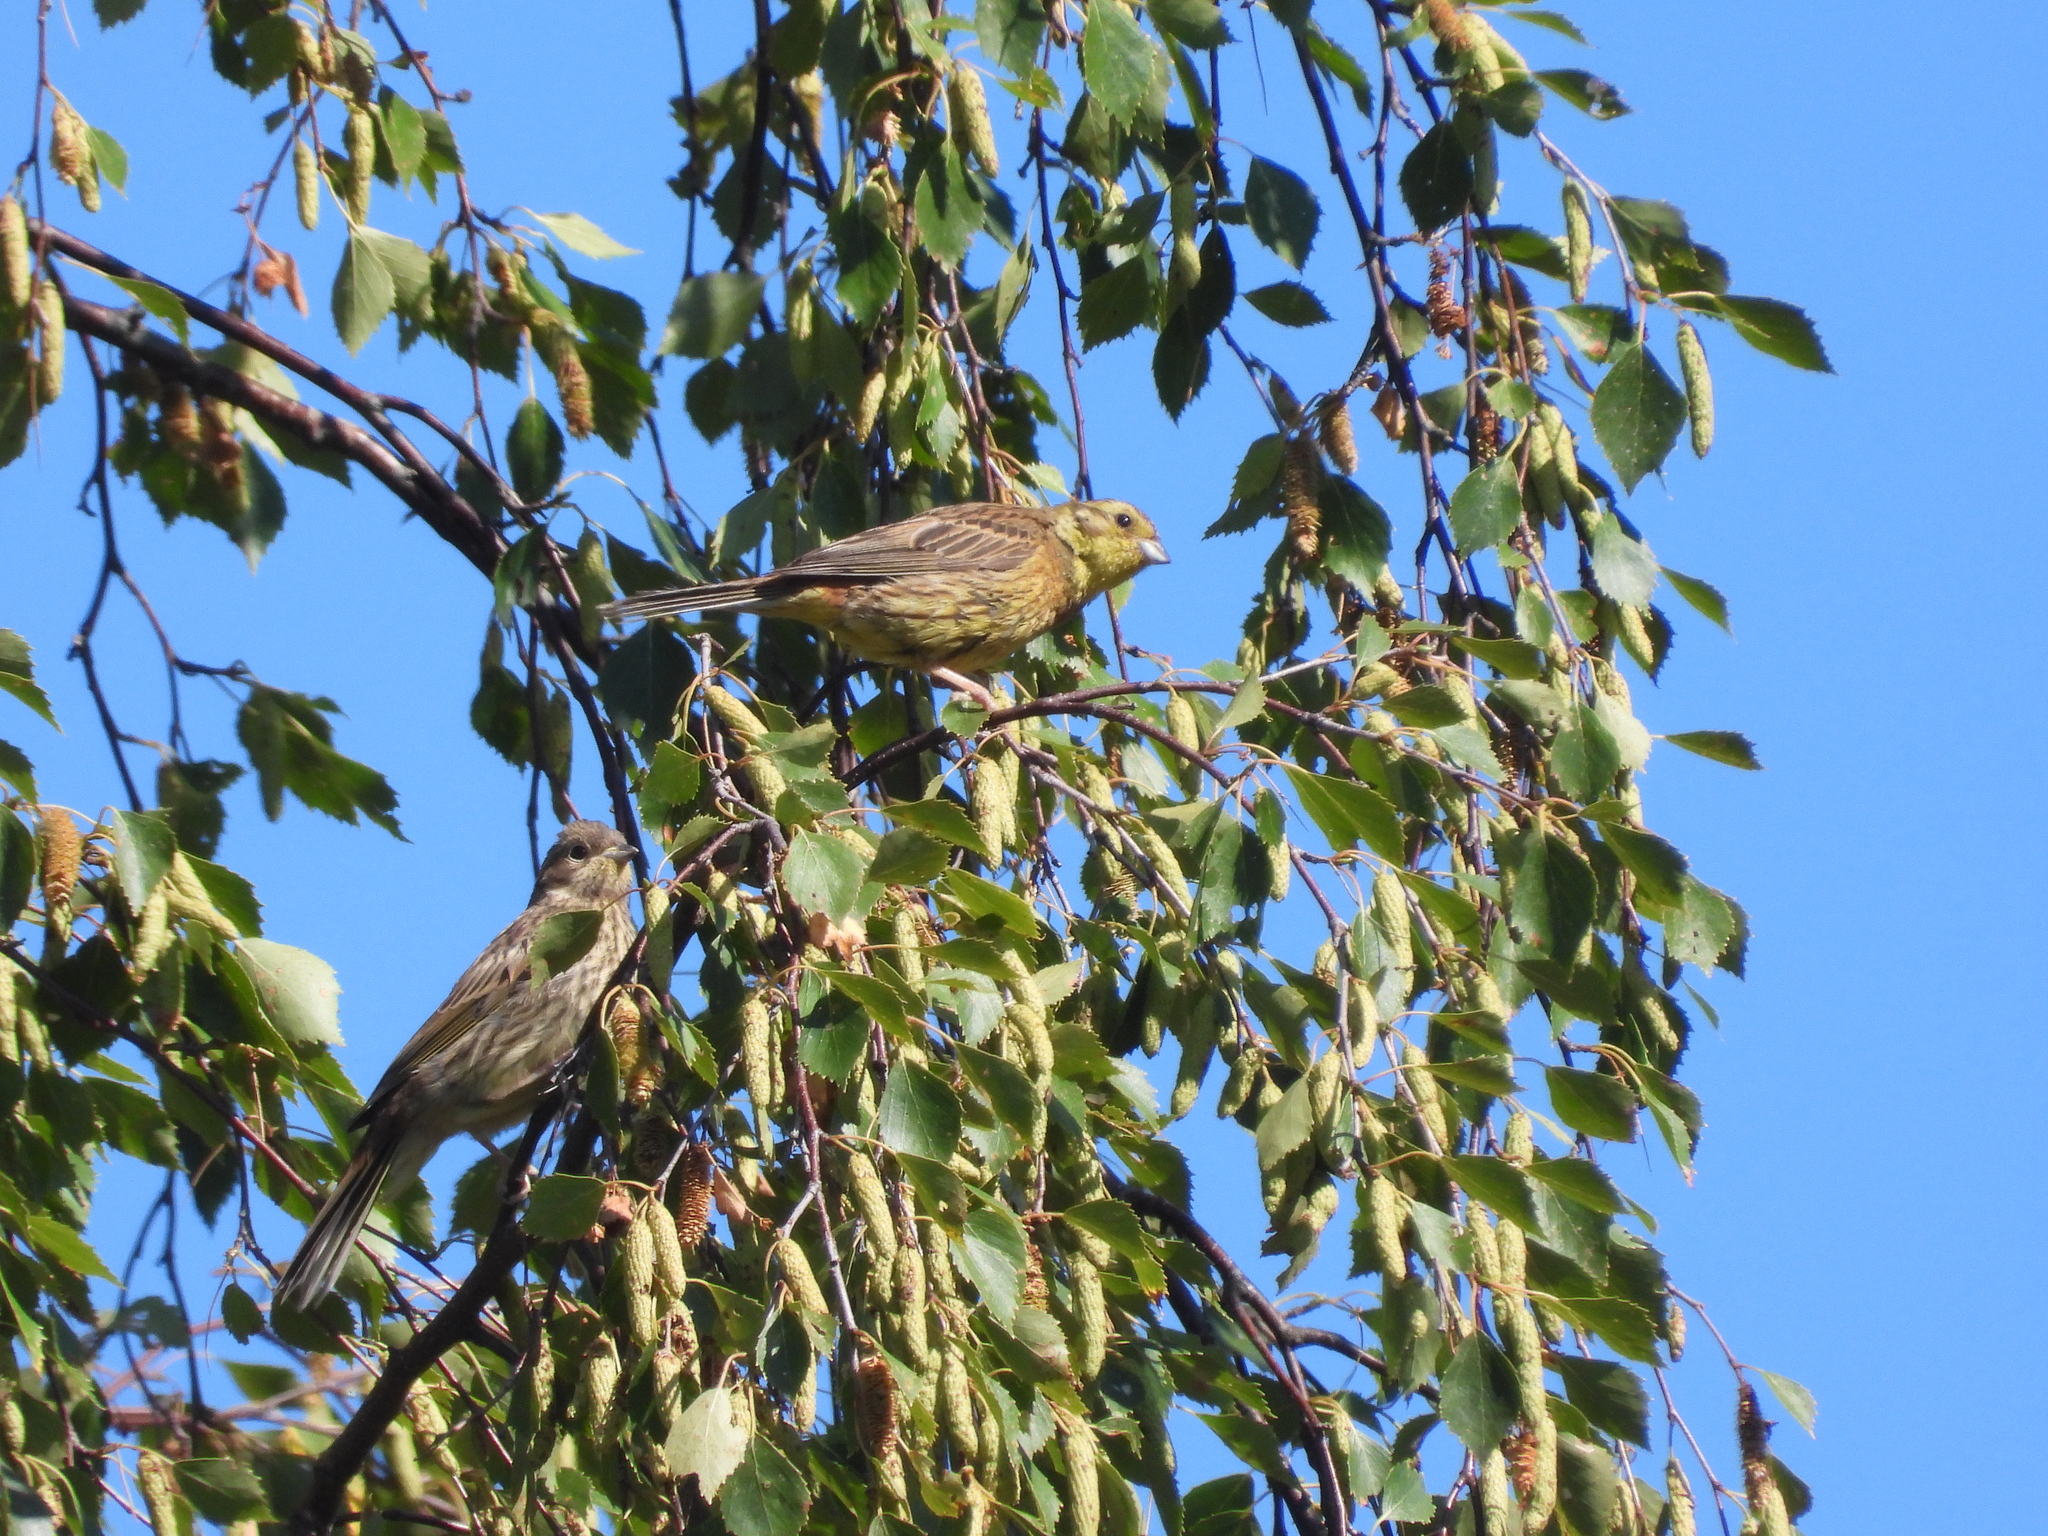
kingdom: Animalia
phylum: Chordata
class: Aves
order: Passeriformes
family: Emberizidae
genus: Emberiza
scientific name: Emberiza citrinella
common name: Yellowhammer
